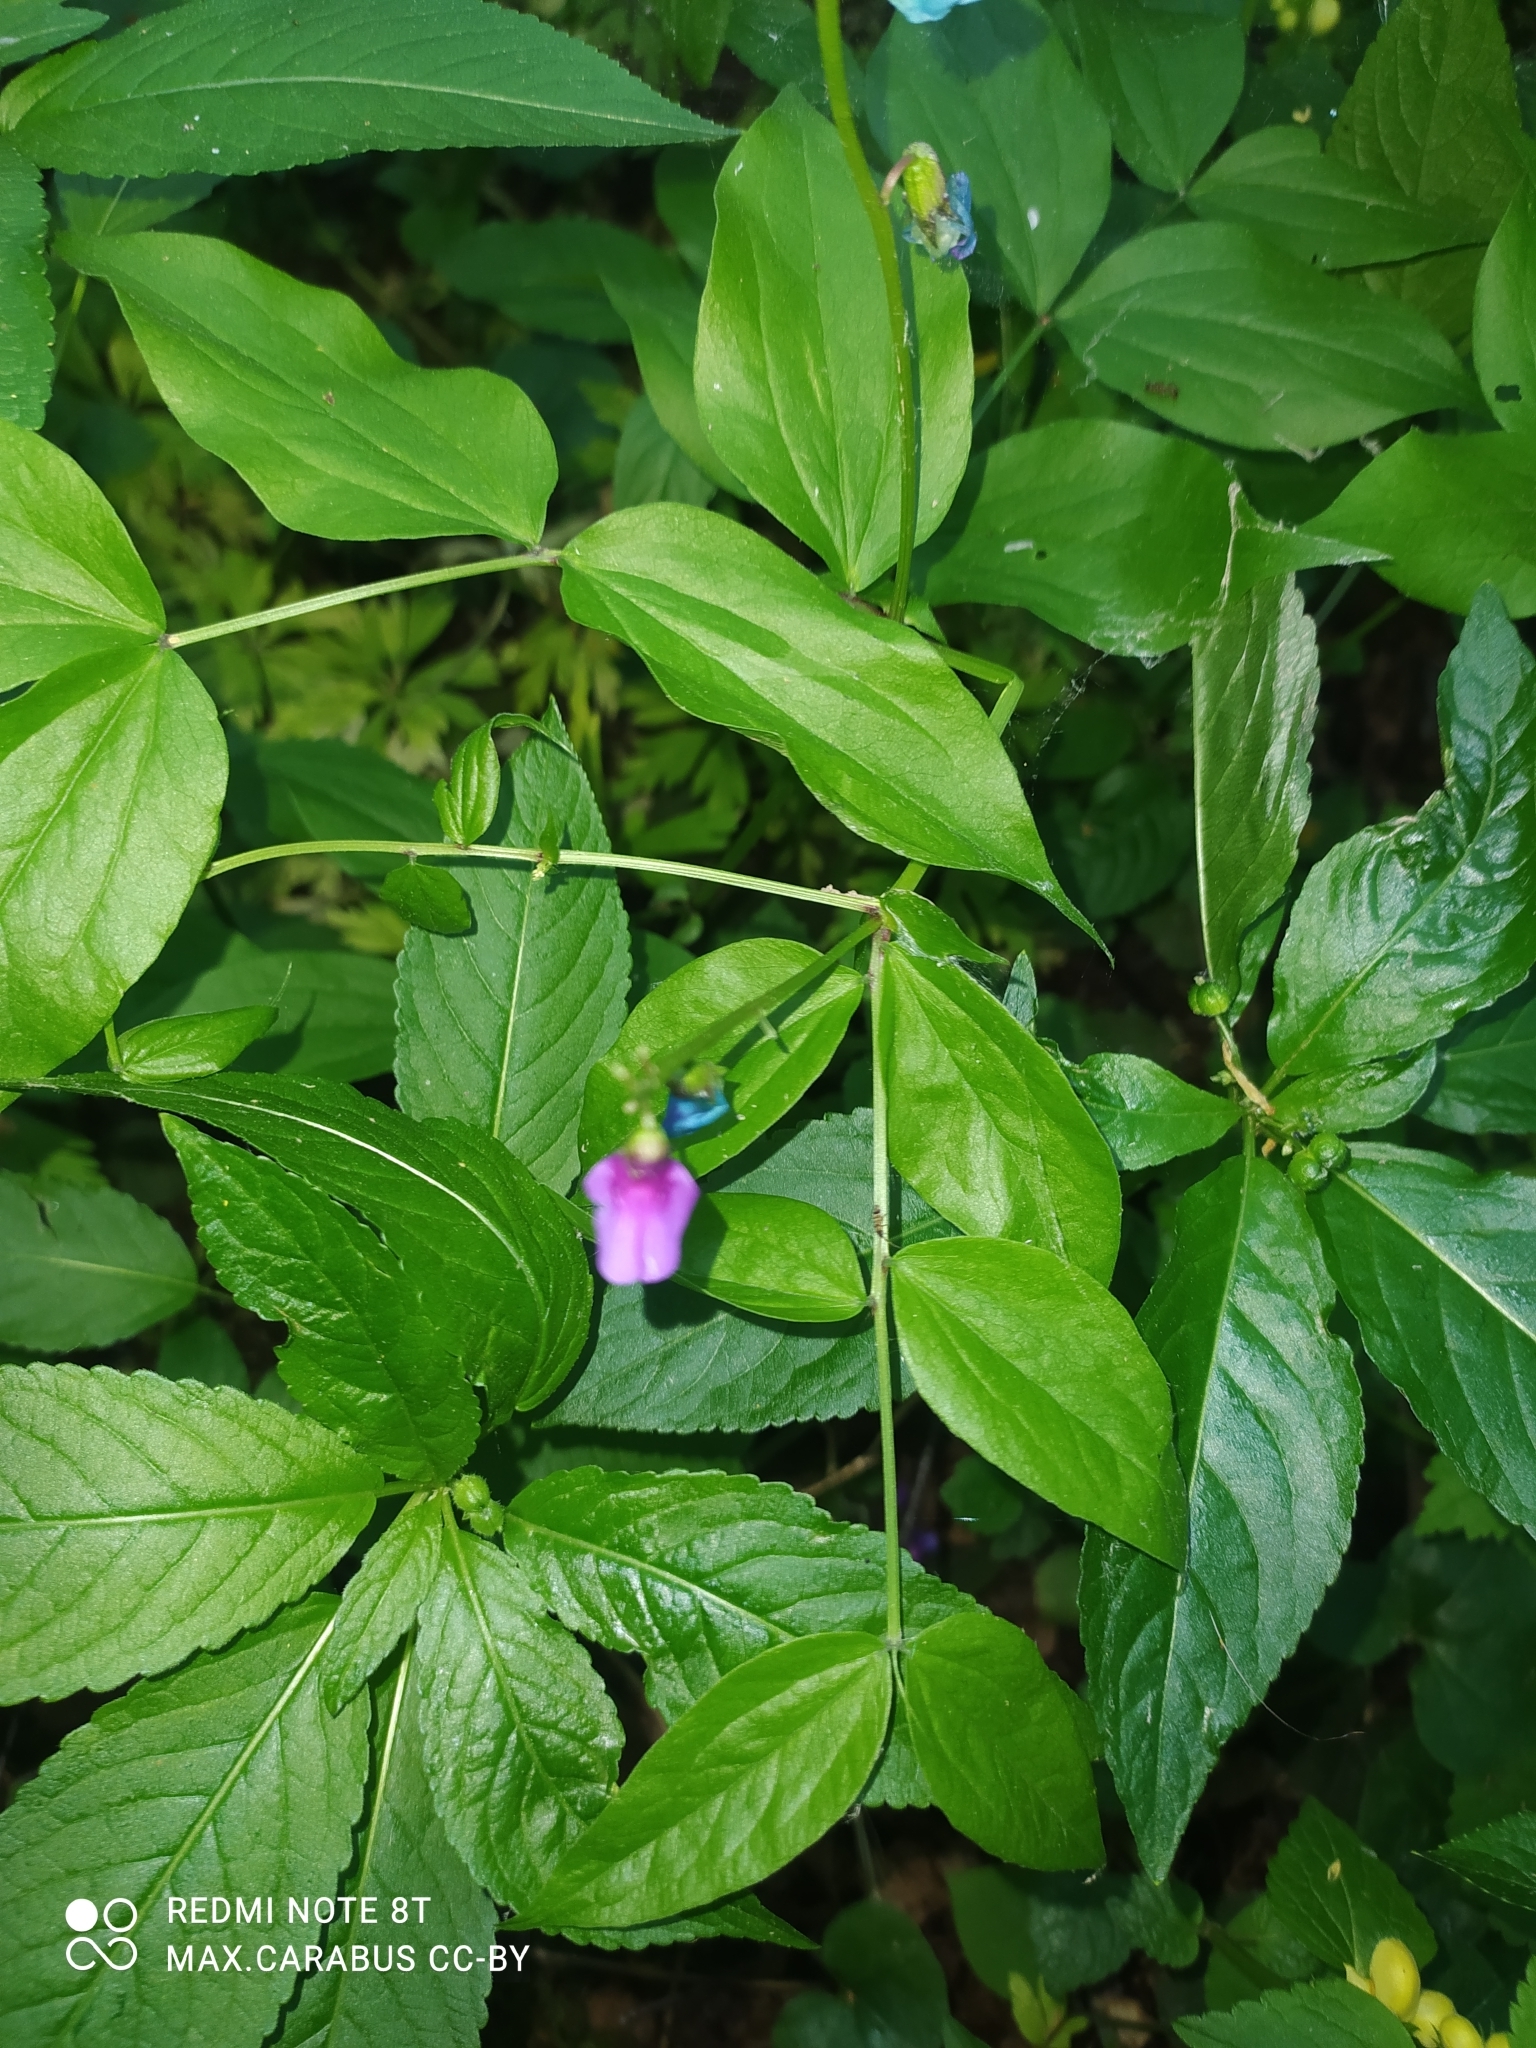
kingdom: Plantae
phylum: Tracheophyta
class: Magnoliopsida
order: Fabales
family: Fabaceae
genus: Lathyrus
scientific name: Lathyrus vernus
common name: Spring pea
